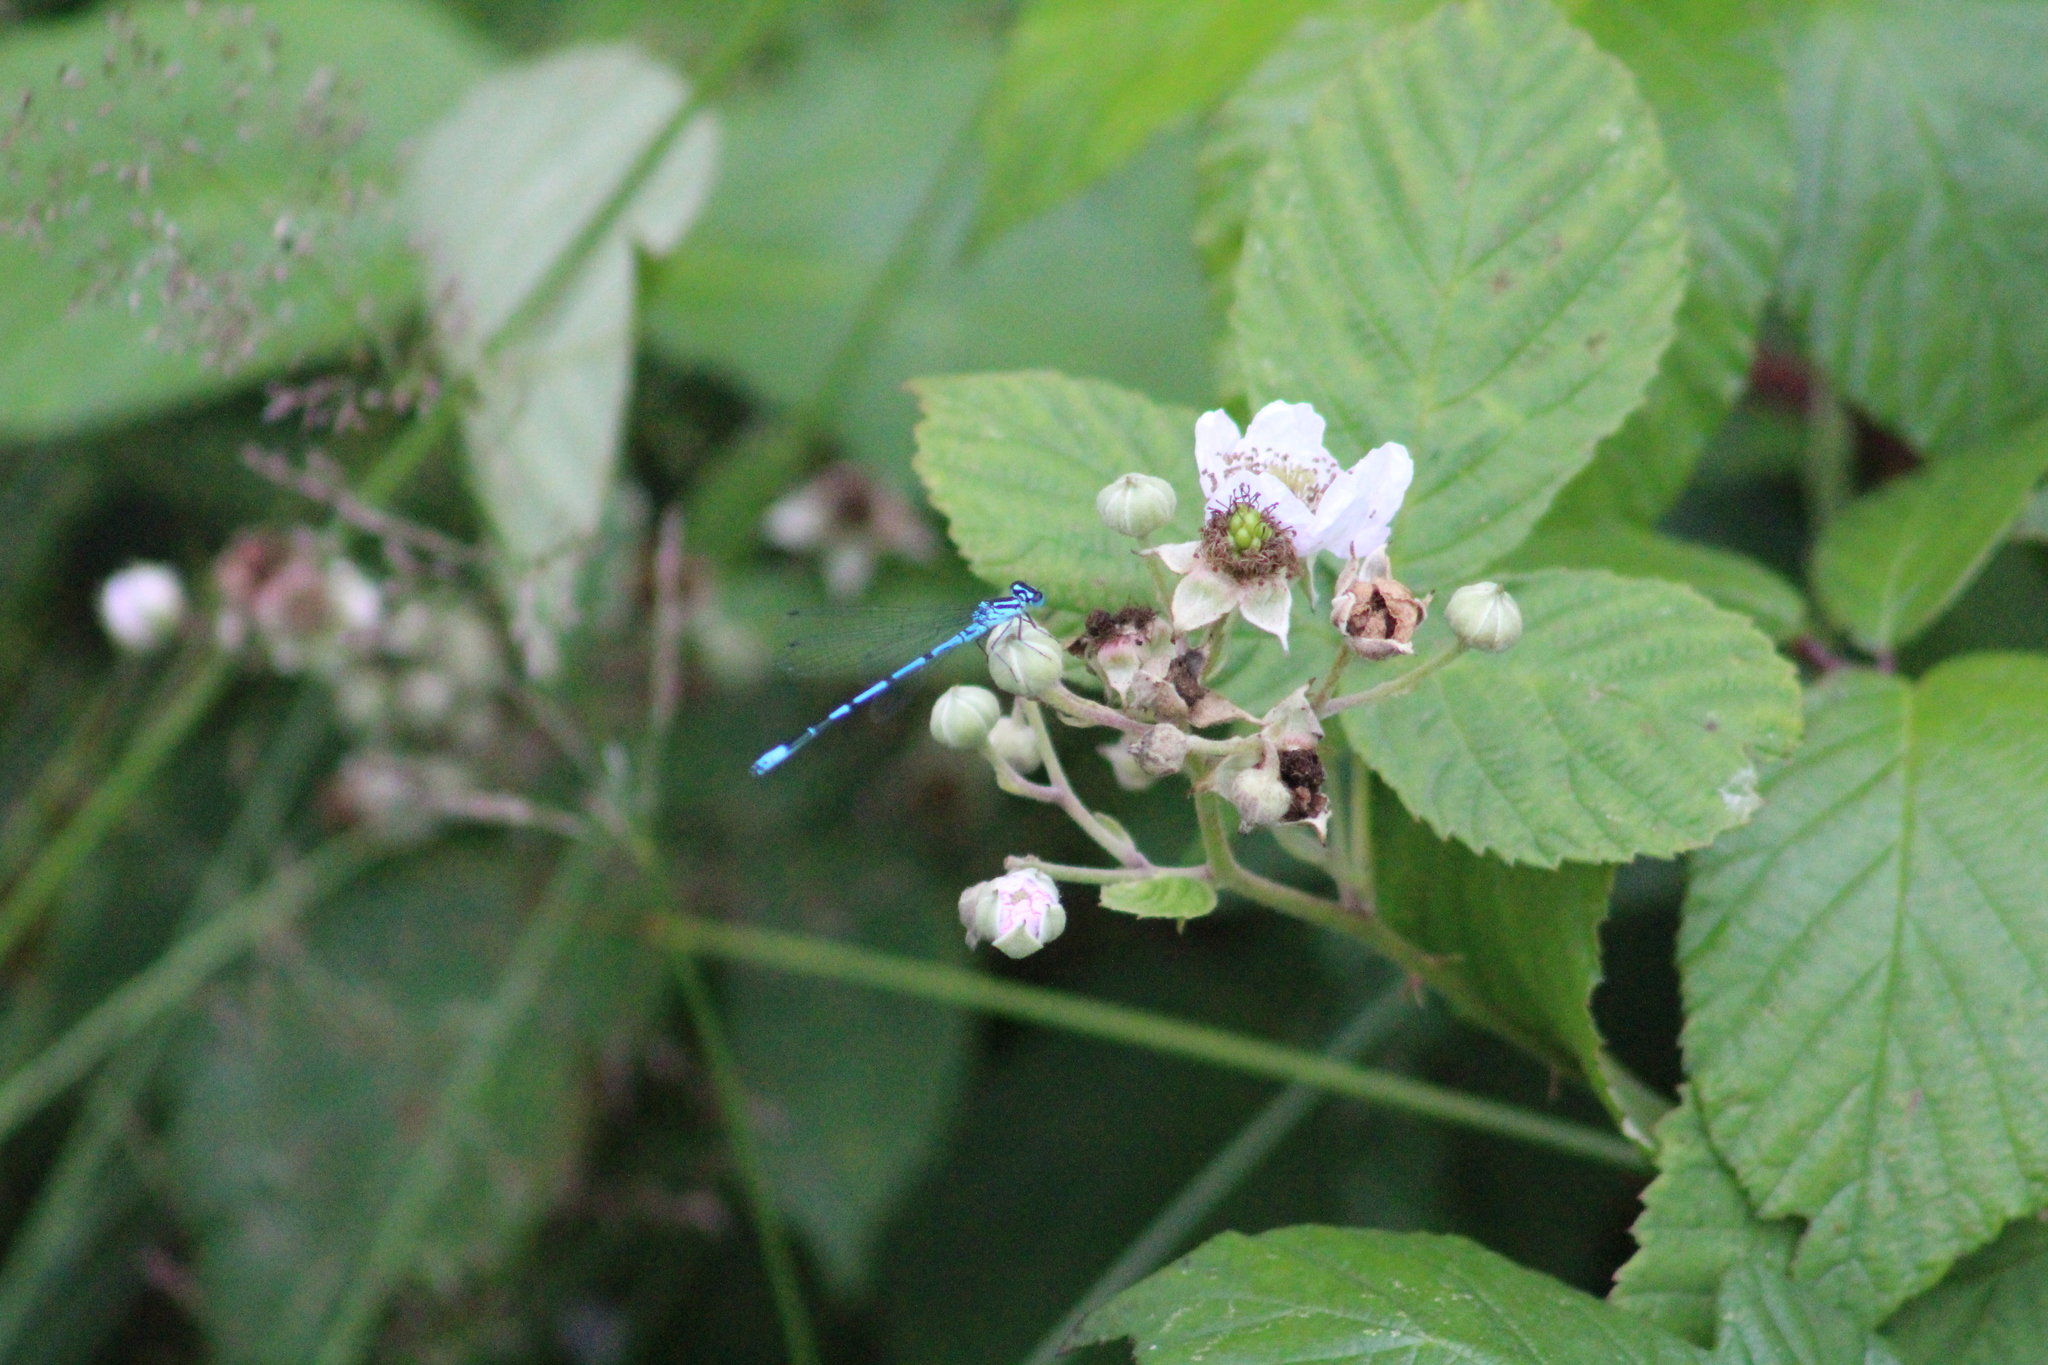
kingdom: Animalia
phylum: Arthropoda
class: Insecta
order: Odonata
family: Coenagrionidae
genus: Coenagrion
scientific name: Coenagrion puella
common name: Azure damselfly
